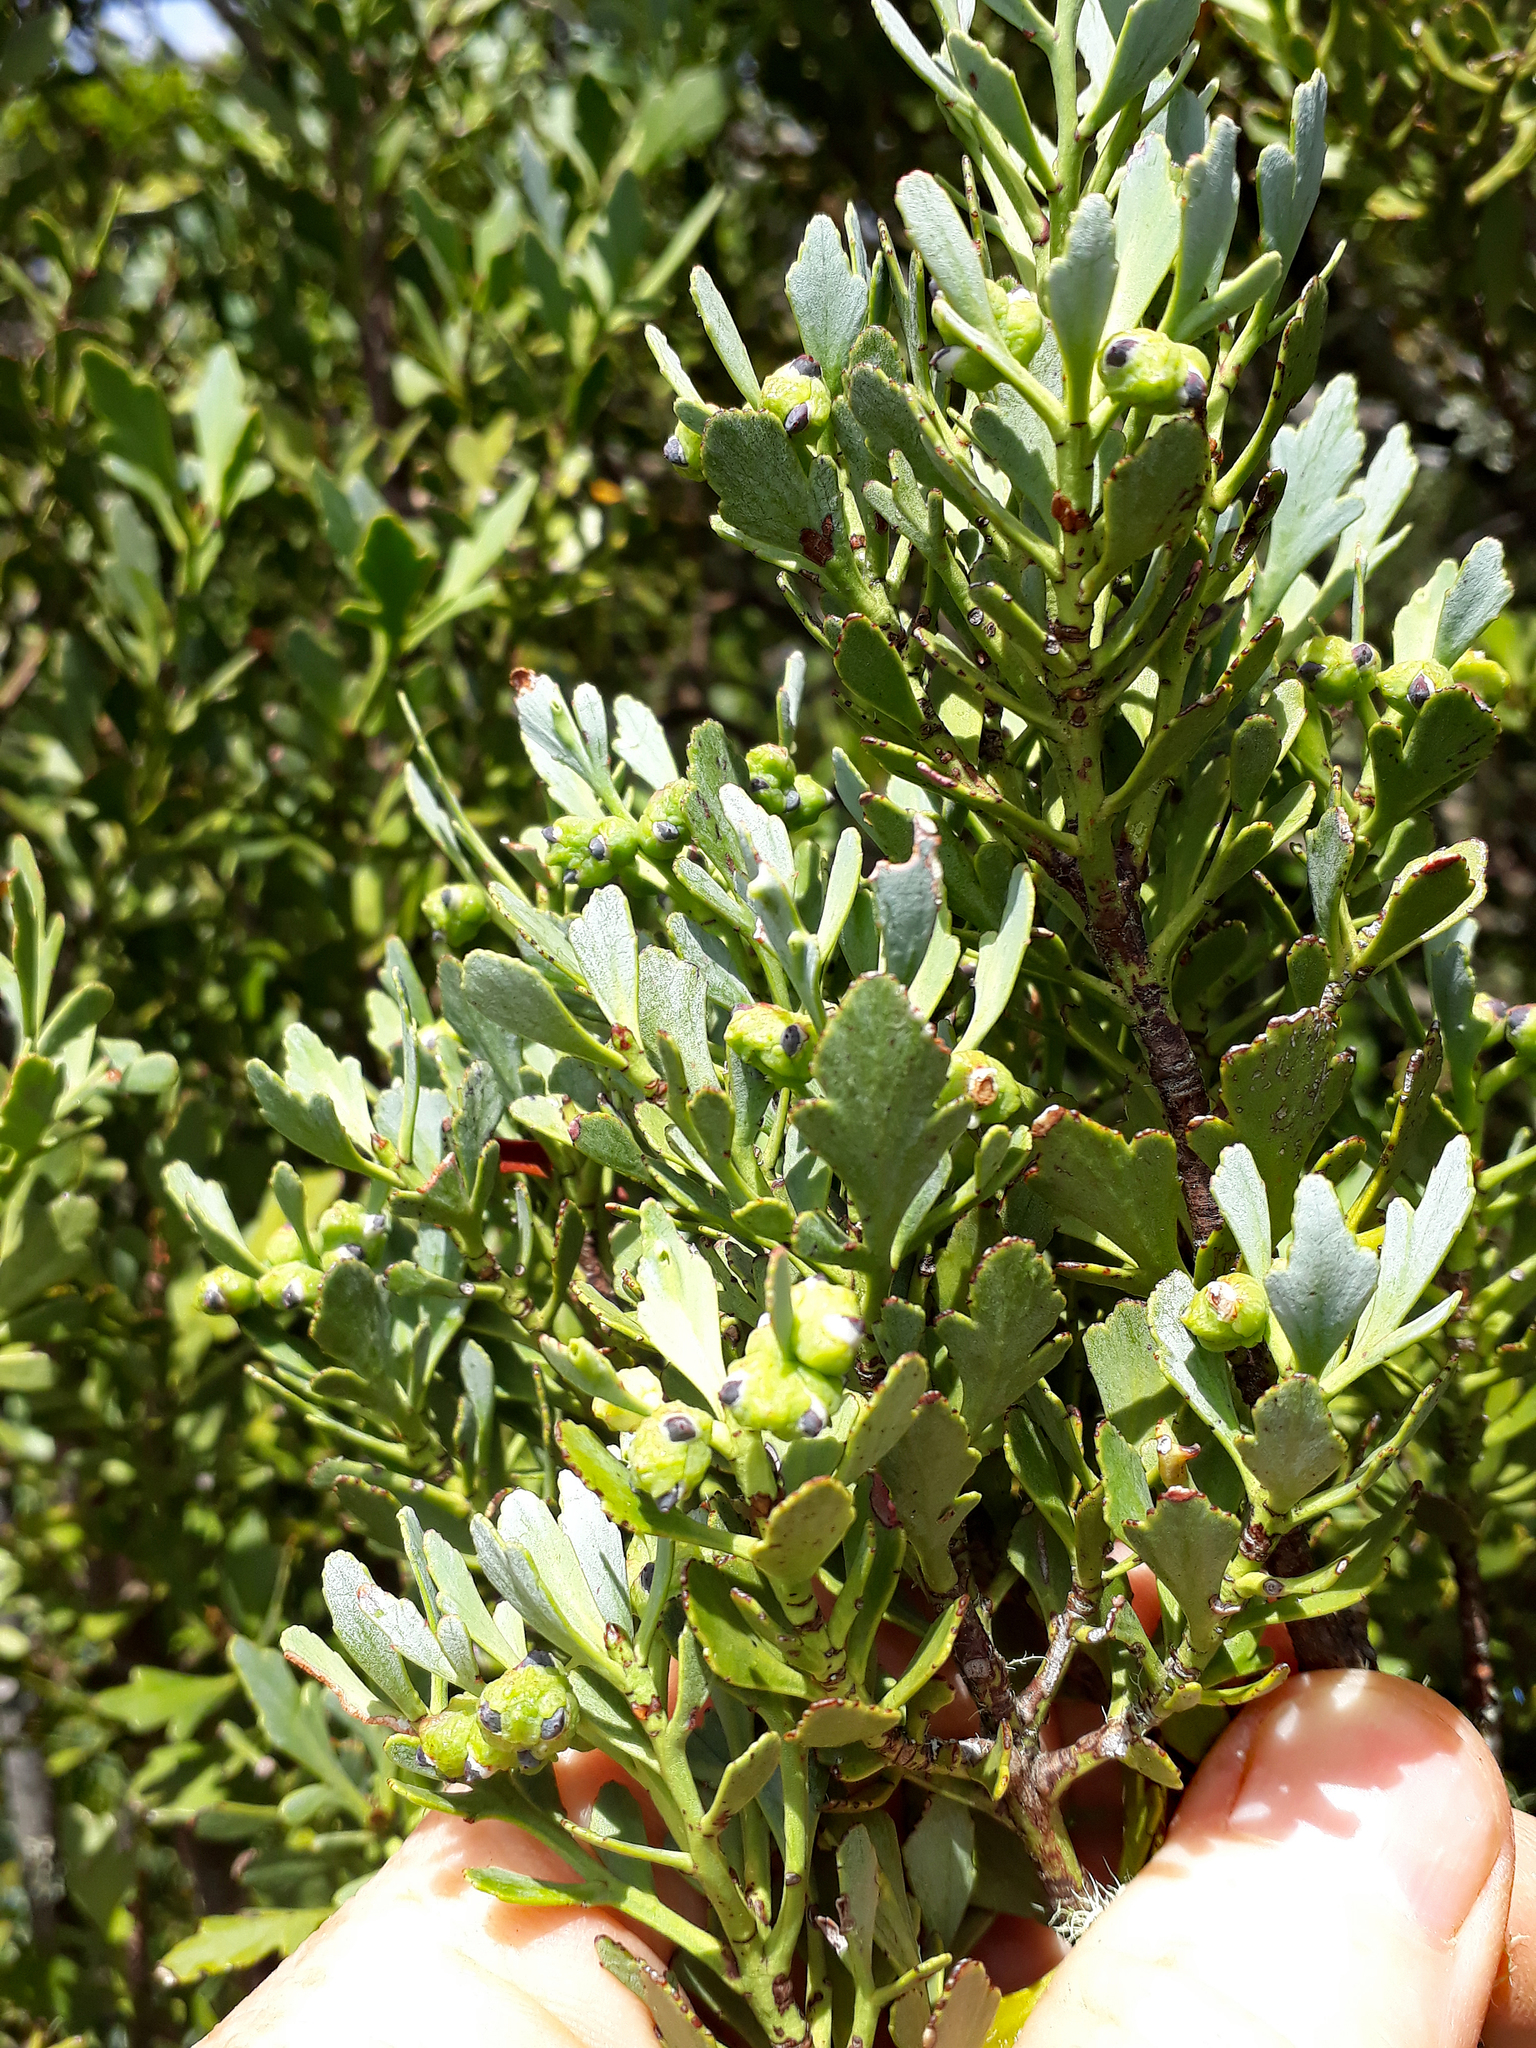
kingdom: Plantae
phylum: Tracheophyta
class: Pinopsida
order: Pinales
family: Phyllocladaceae
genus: Phyllocladus
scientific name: Phyllocladus trichomanoides
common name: Celery pine
